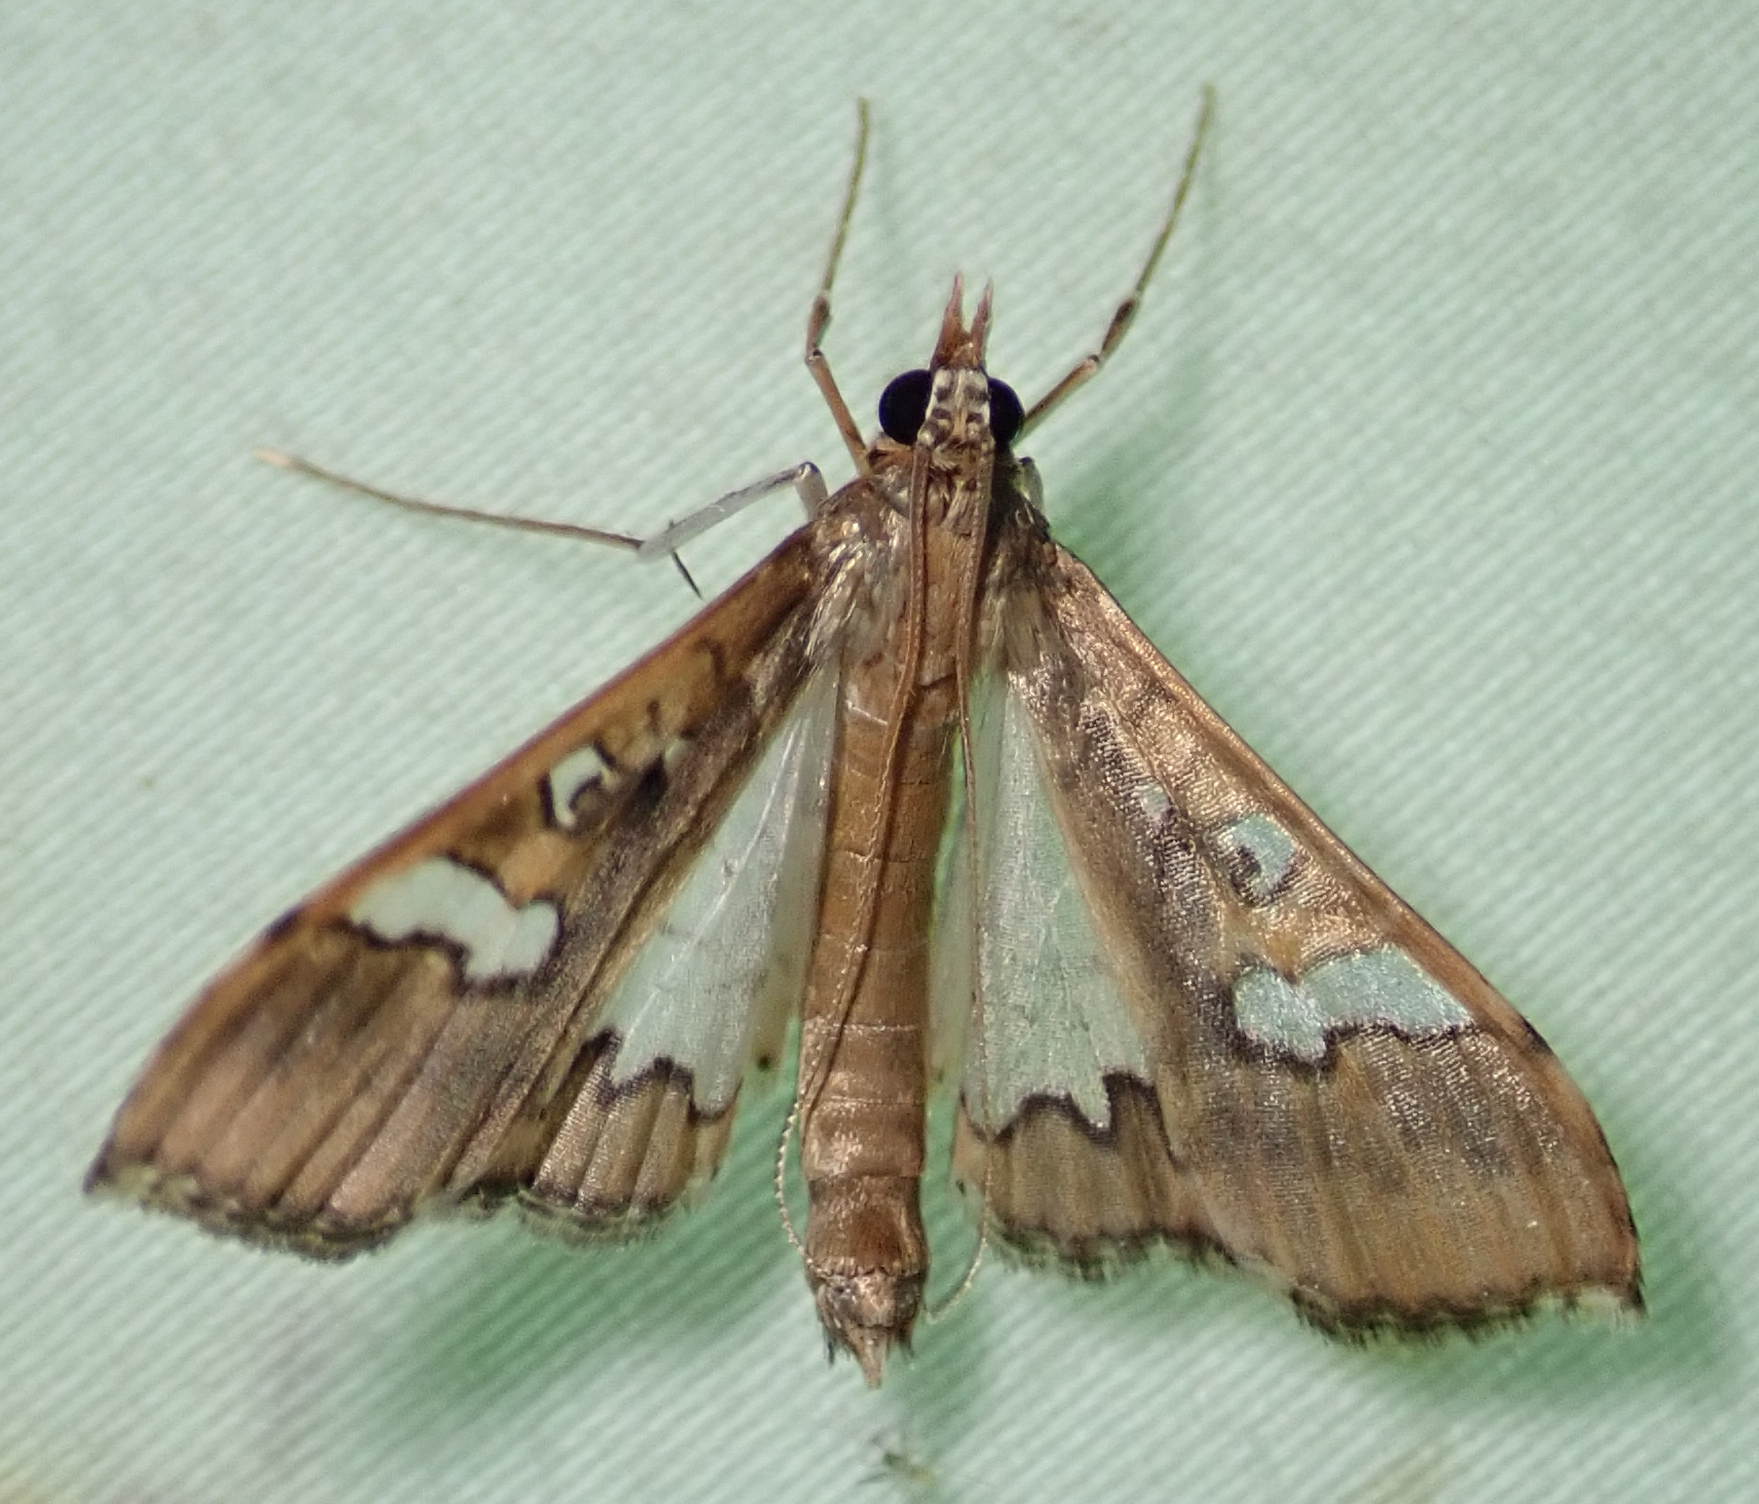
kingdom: Animalia
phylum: Arthropoda
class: Insecta
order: Lepidoptera
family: Crambidae
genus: Maruca
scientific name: Maruca vitrata
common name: Maruca pod borer
